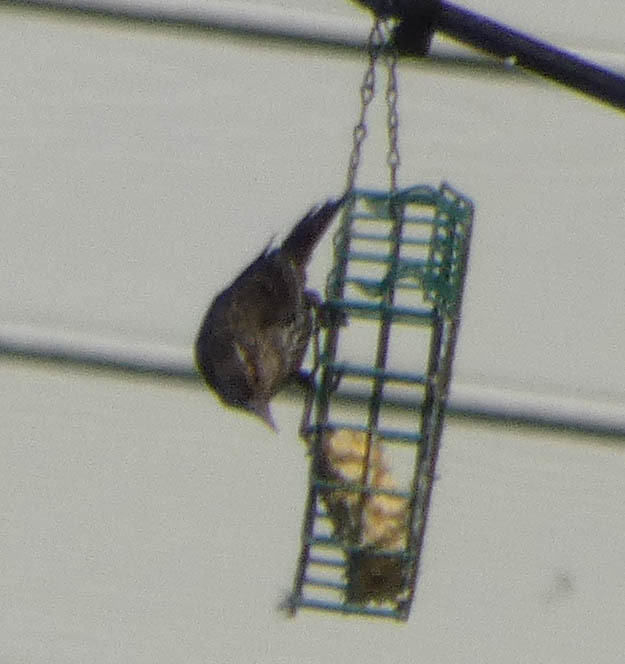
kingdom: Animalia
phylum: Chordata
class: Aves
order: Passeriformes
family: Icteridae
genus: Agelaius
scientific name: Agelaius phoeniceus
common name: Red-winged blackbird
